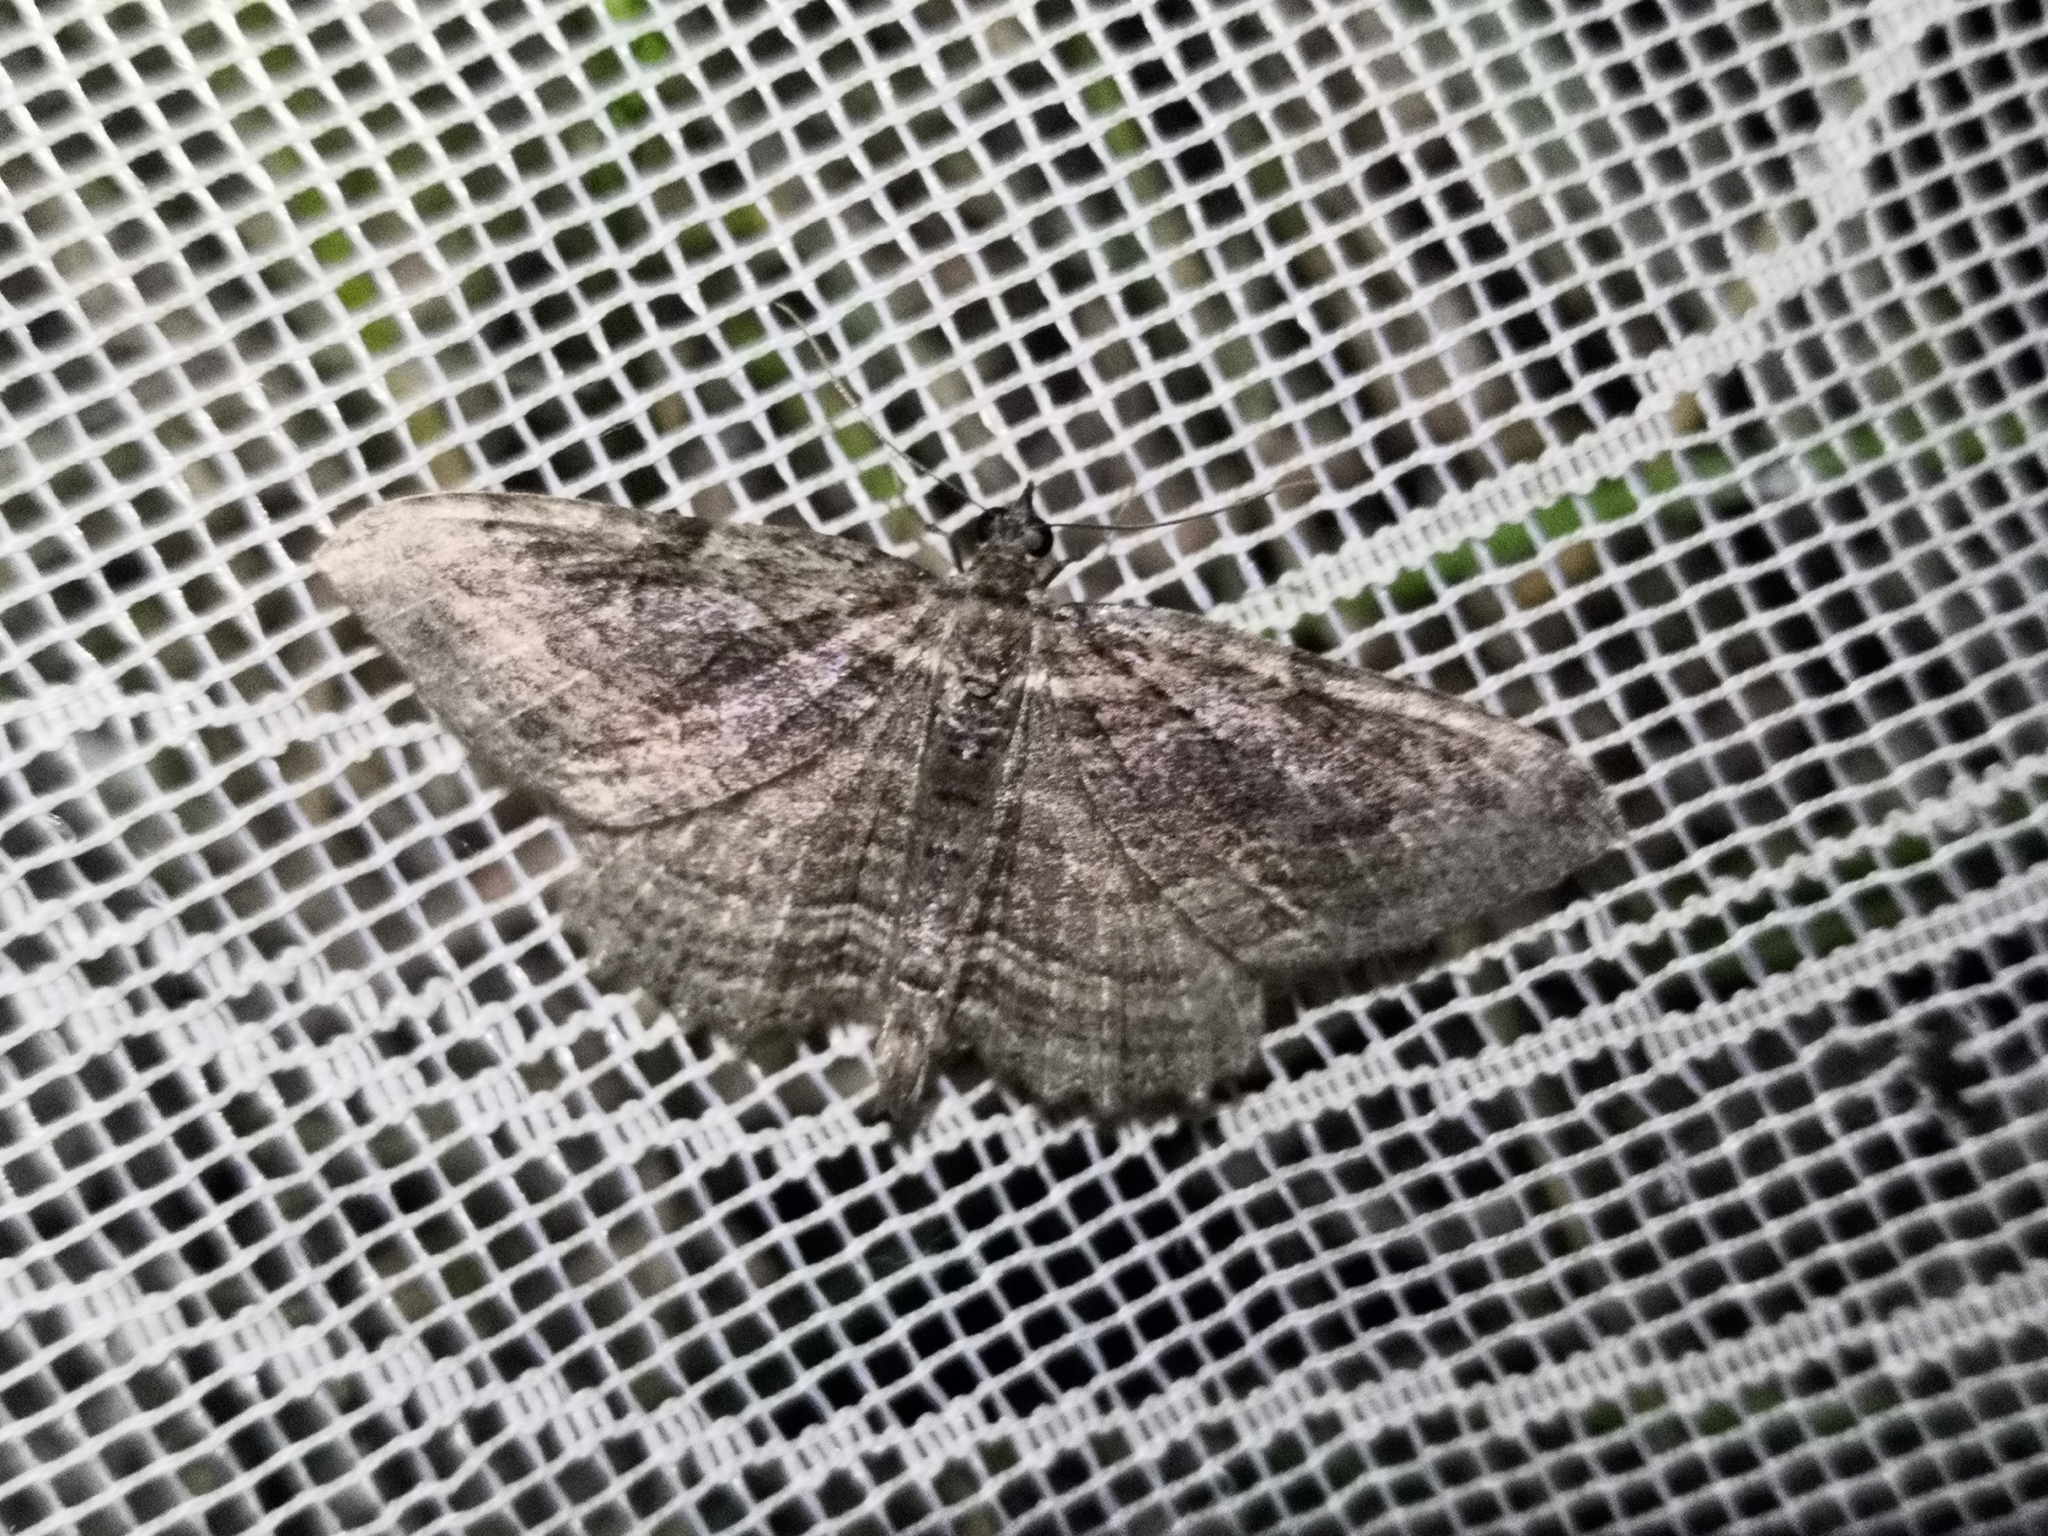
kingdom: Animalia
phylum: Arthropoda
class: Insecta
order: Lepidoptera
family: Geometridae
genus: Philereme
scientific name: Philereme transversata
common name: Dark umber
